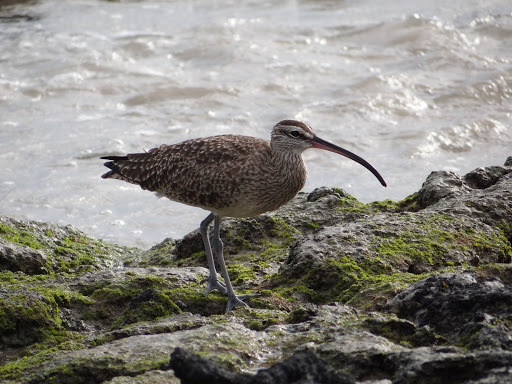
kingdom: Animalia
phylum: Chordata
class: Aves
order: Charadriiformes
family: Scolopacidae
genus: Numenius
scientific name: Numenius phaeopus
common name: Whimbrel
